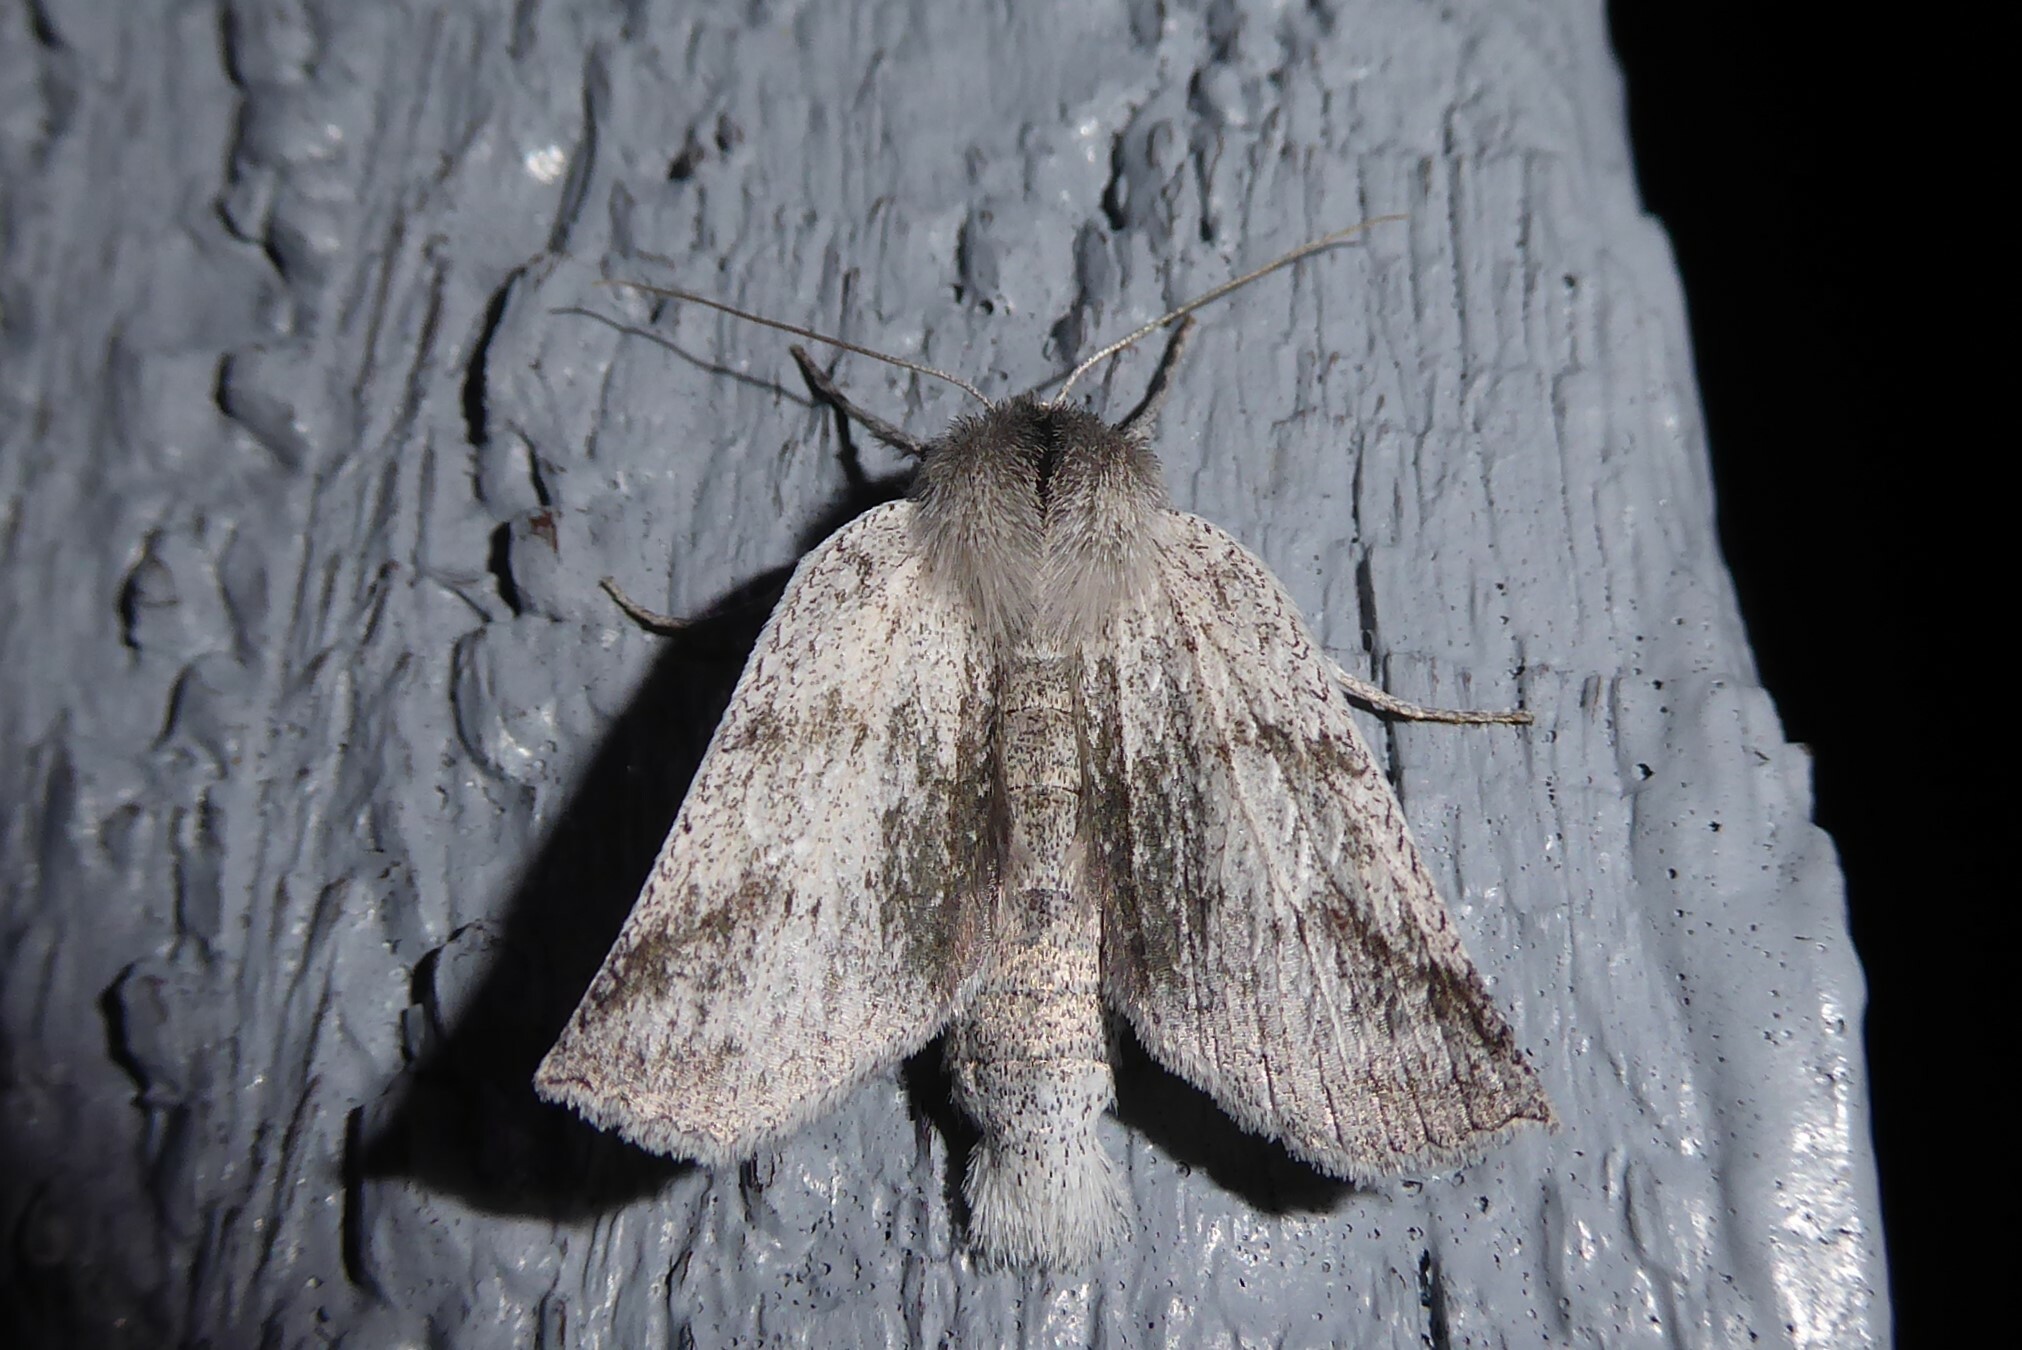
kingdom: Animalia
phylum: Arthropoda
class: Insecta
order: Lepidoptera
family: Geometridae
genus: Declana
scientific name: Declana leptomera
